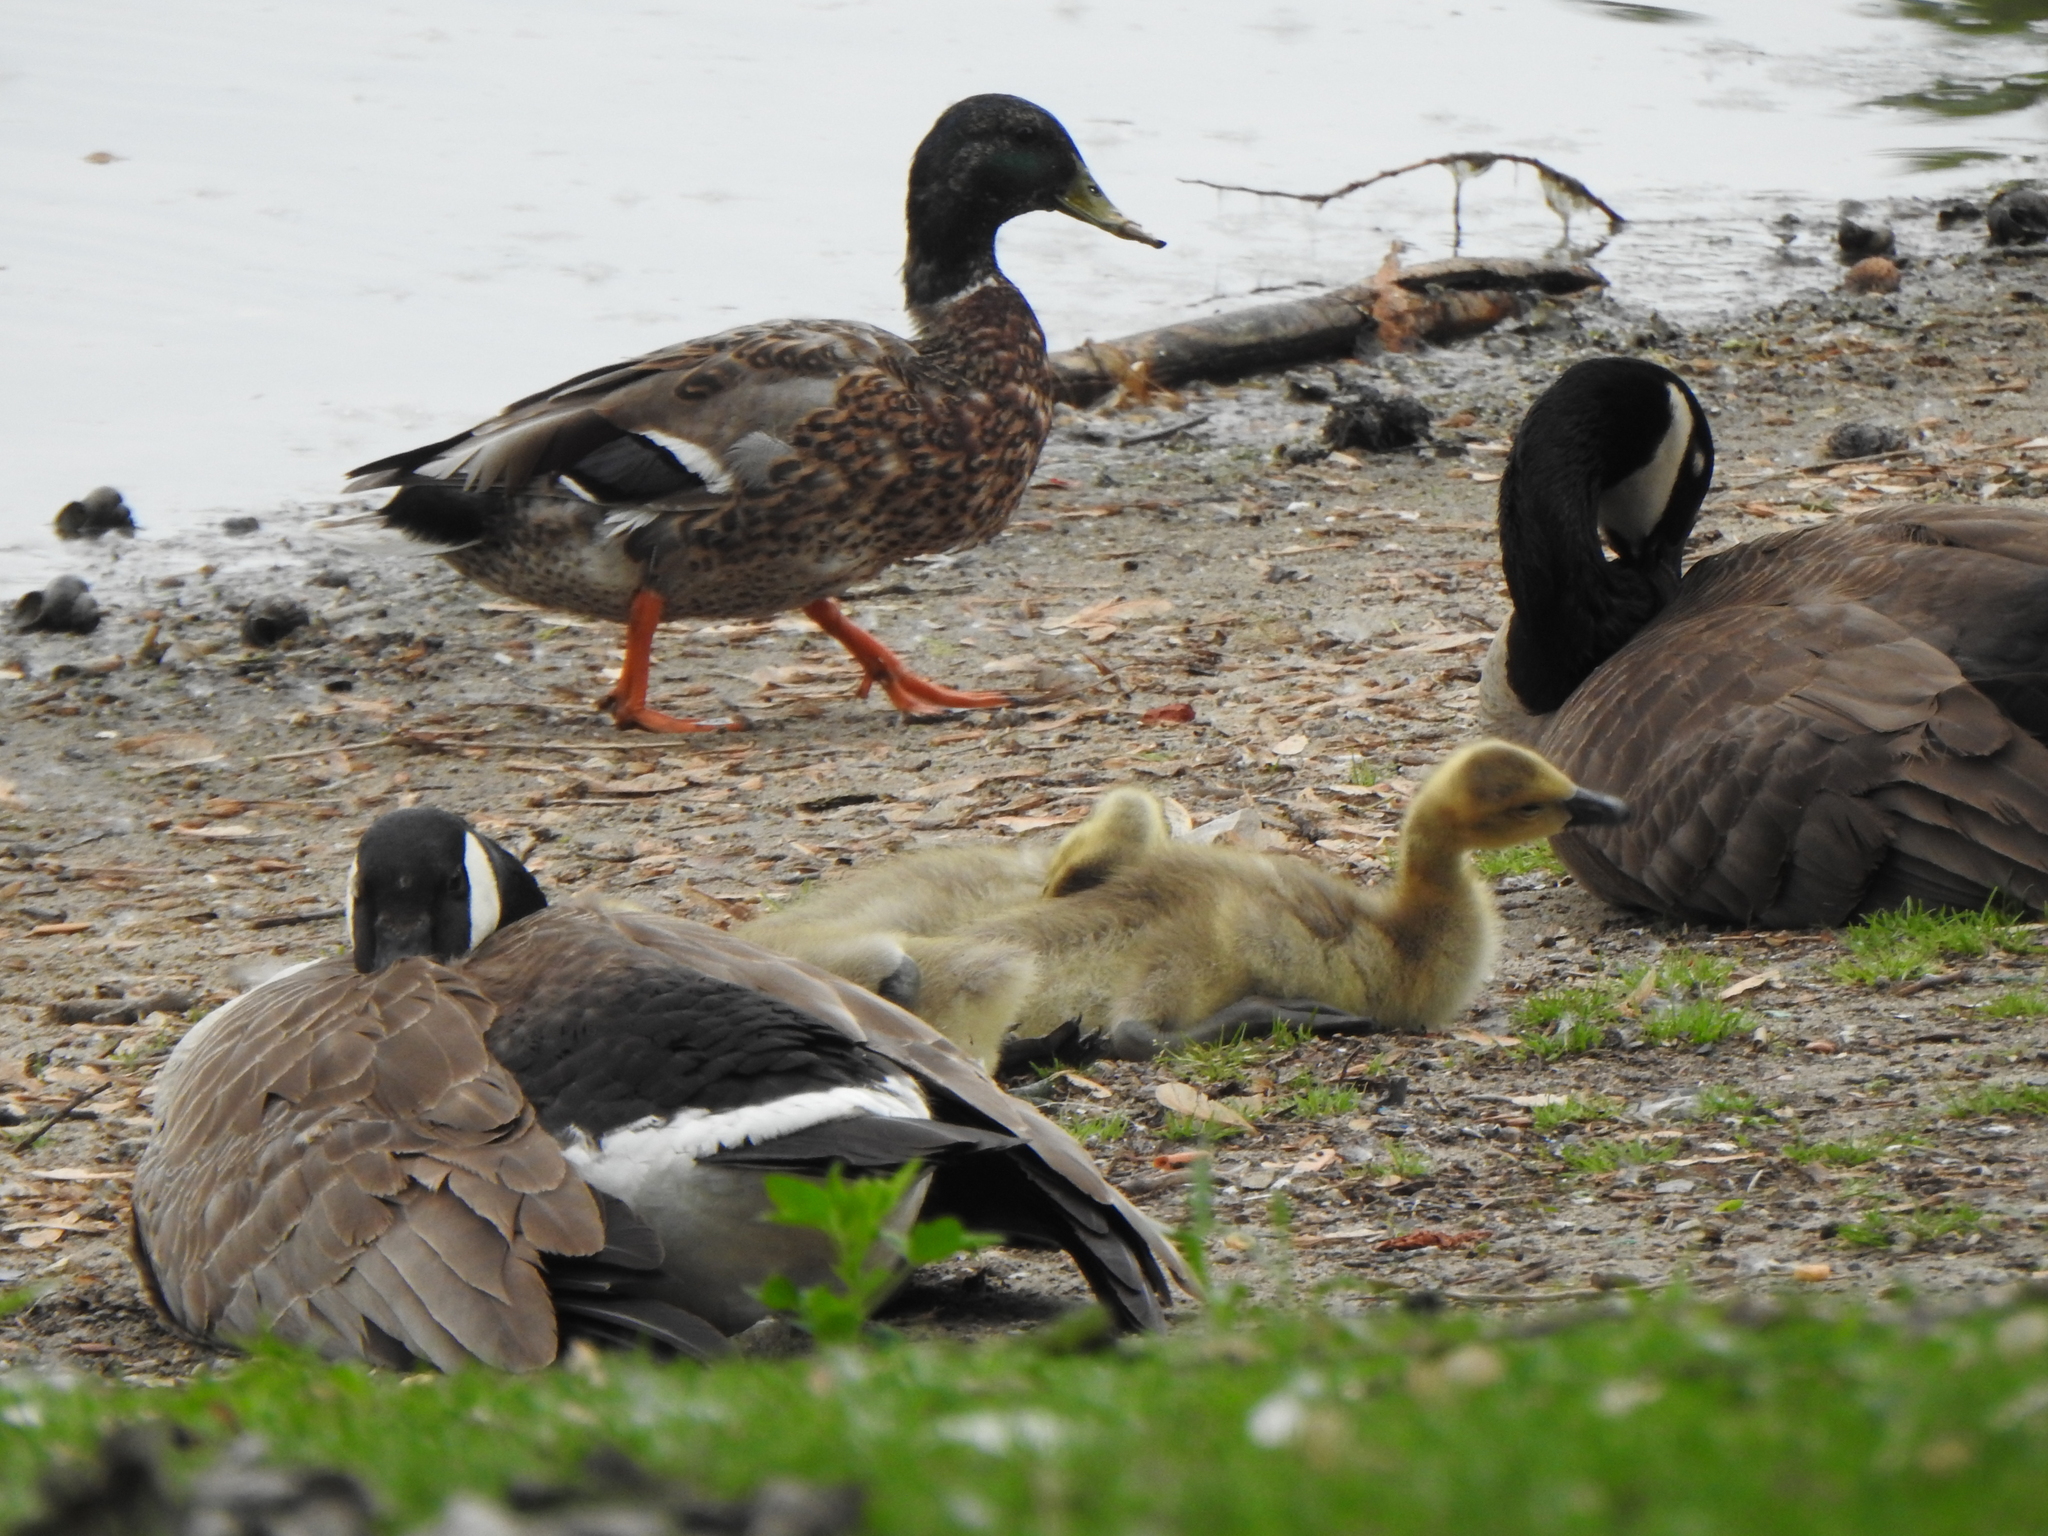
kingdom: Animalia
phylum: Chordata
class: Aves
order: Anseriformes
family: Anatidae
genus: Branta
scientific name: Branta canadensis
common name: Canada goose
